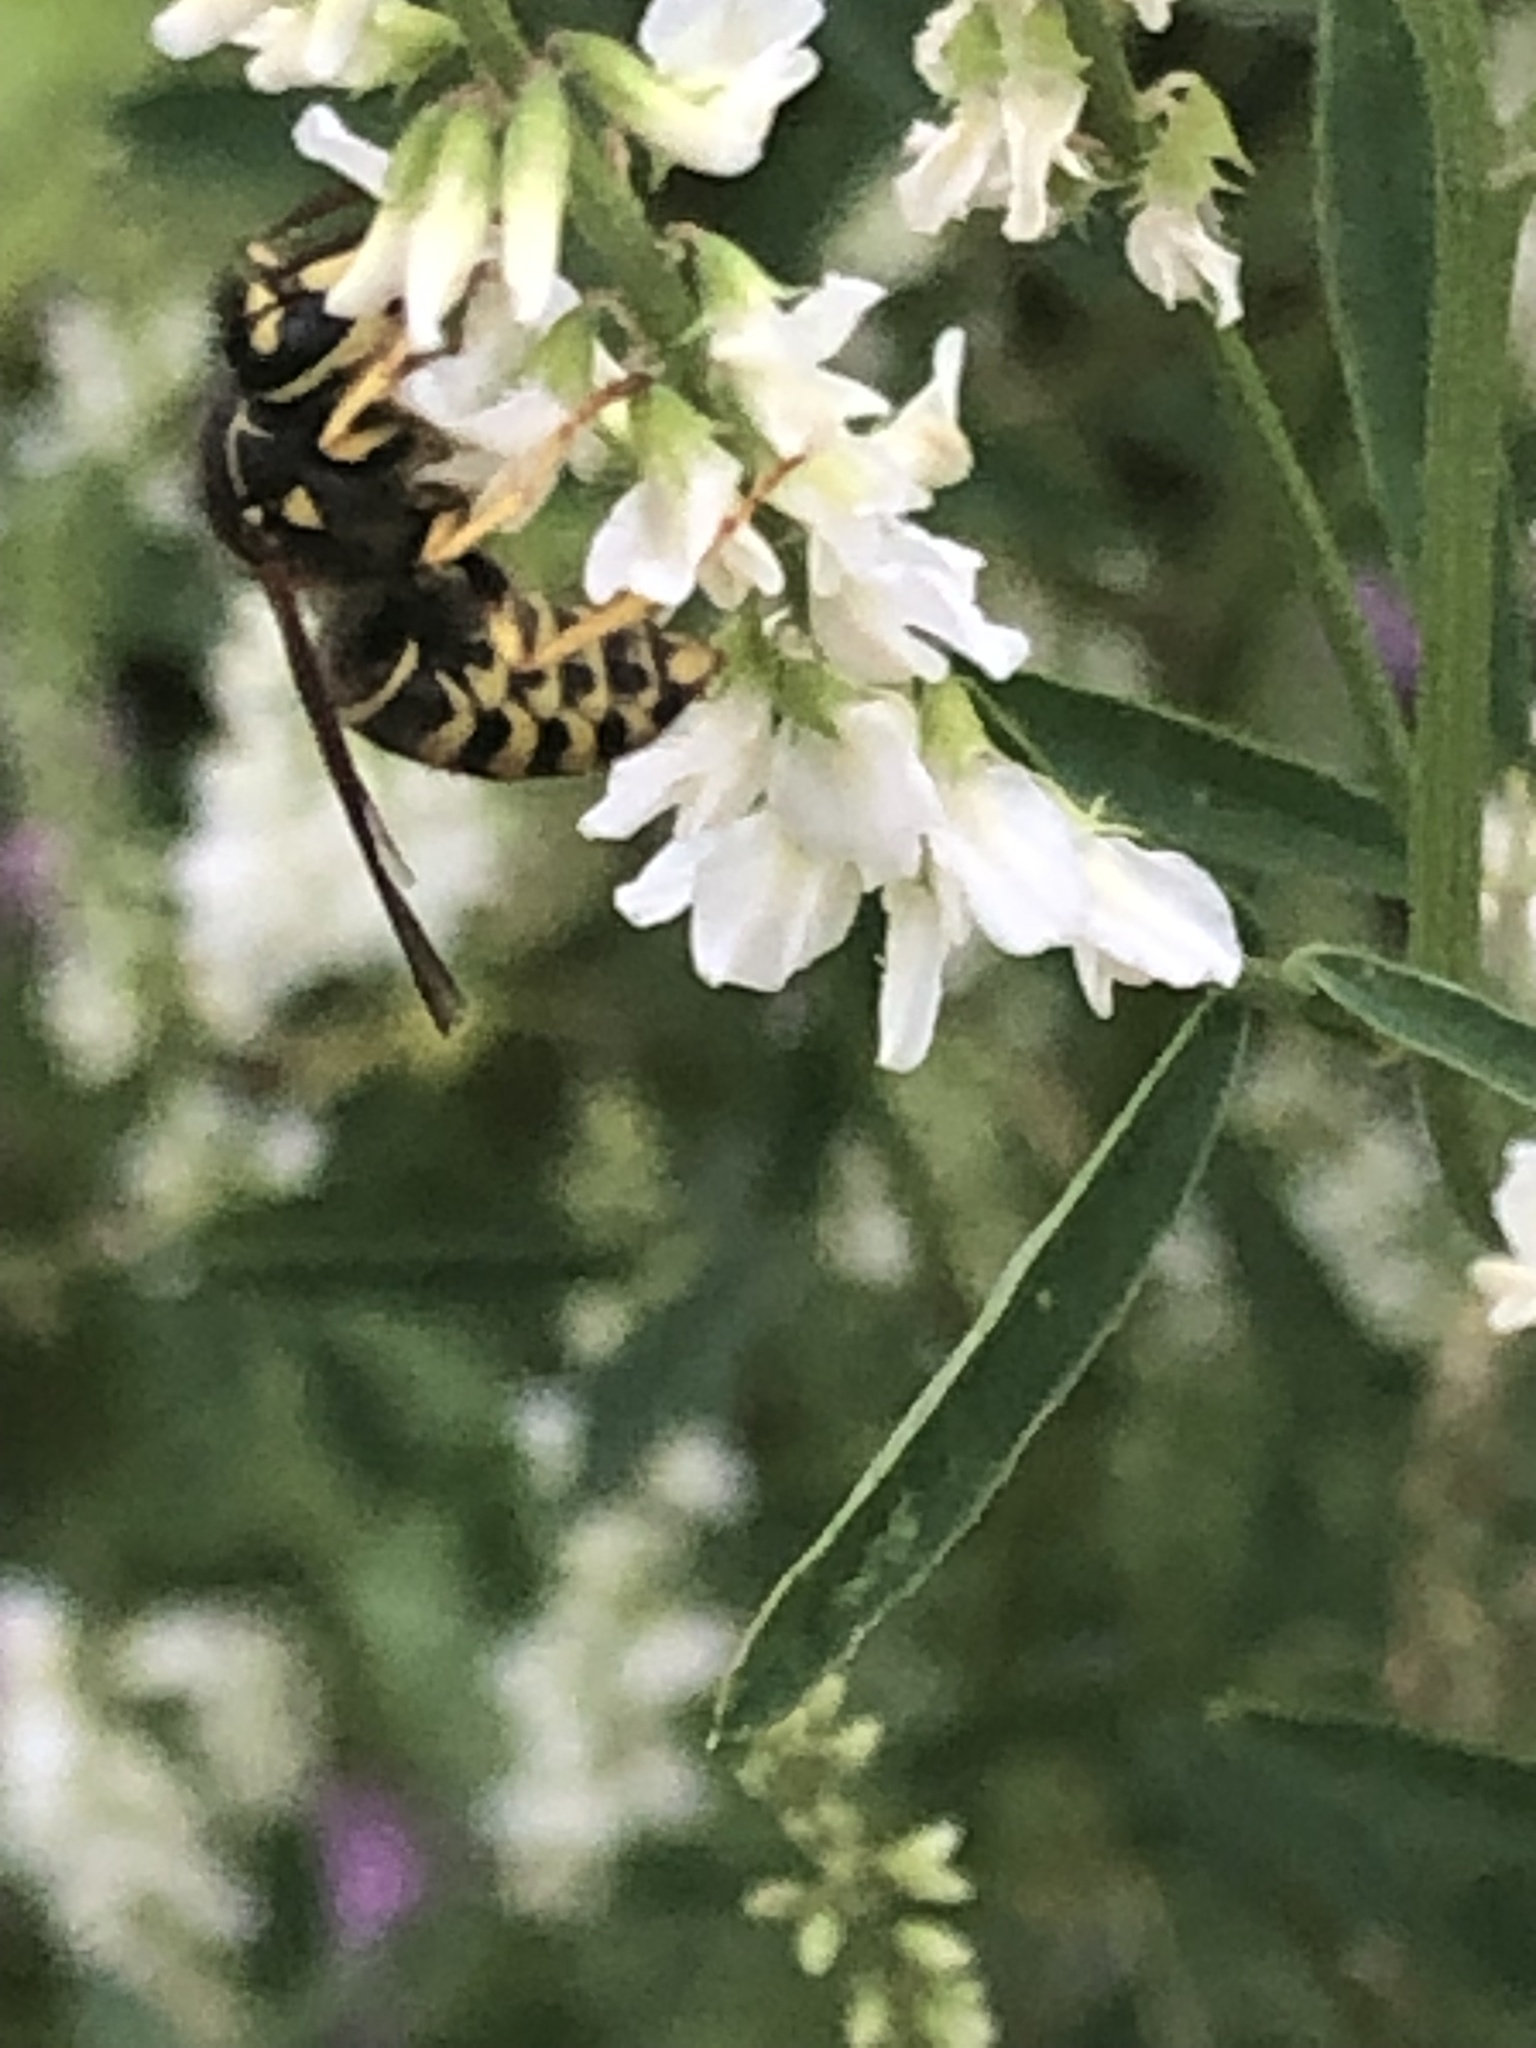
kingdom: Animalia
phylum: Arthropoda
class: Insecta
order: Hymenoptera
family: Vespidae
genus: Dolichovespula
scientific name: Dolichovespula arenaria
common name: Aerial yellowjacket
